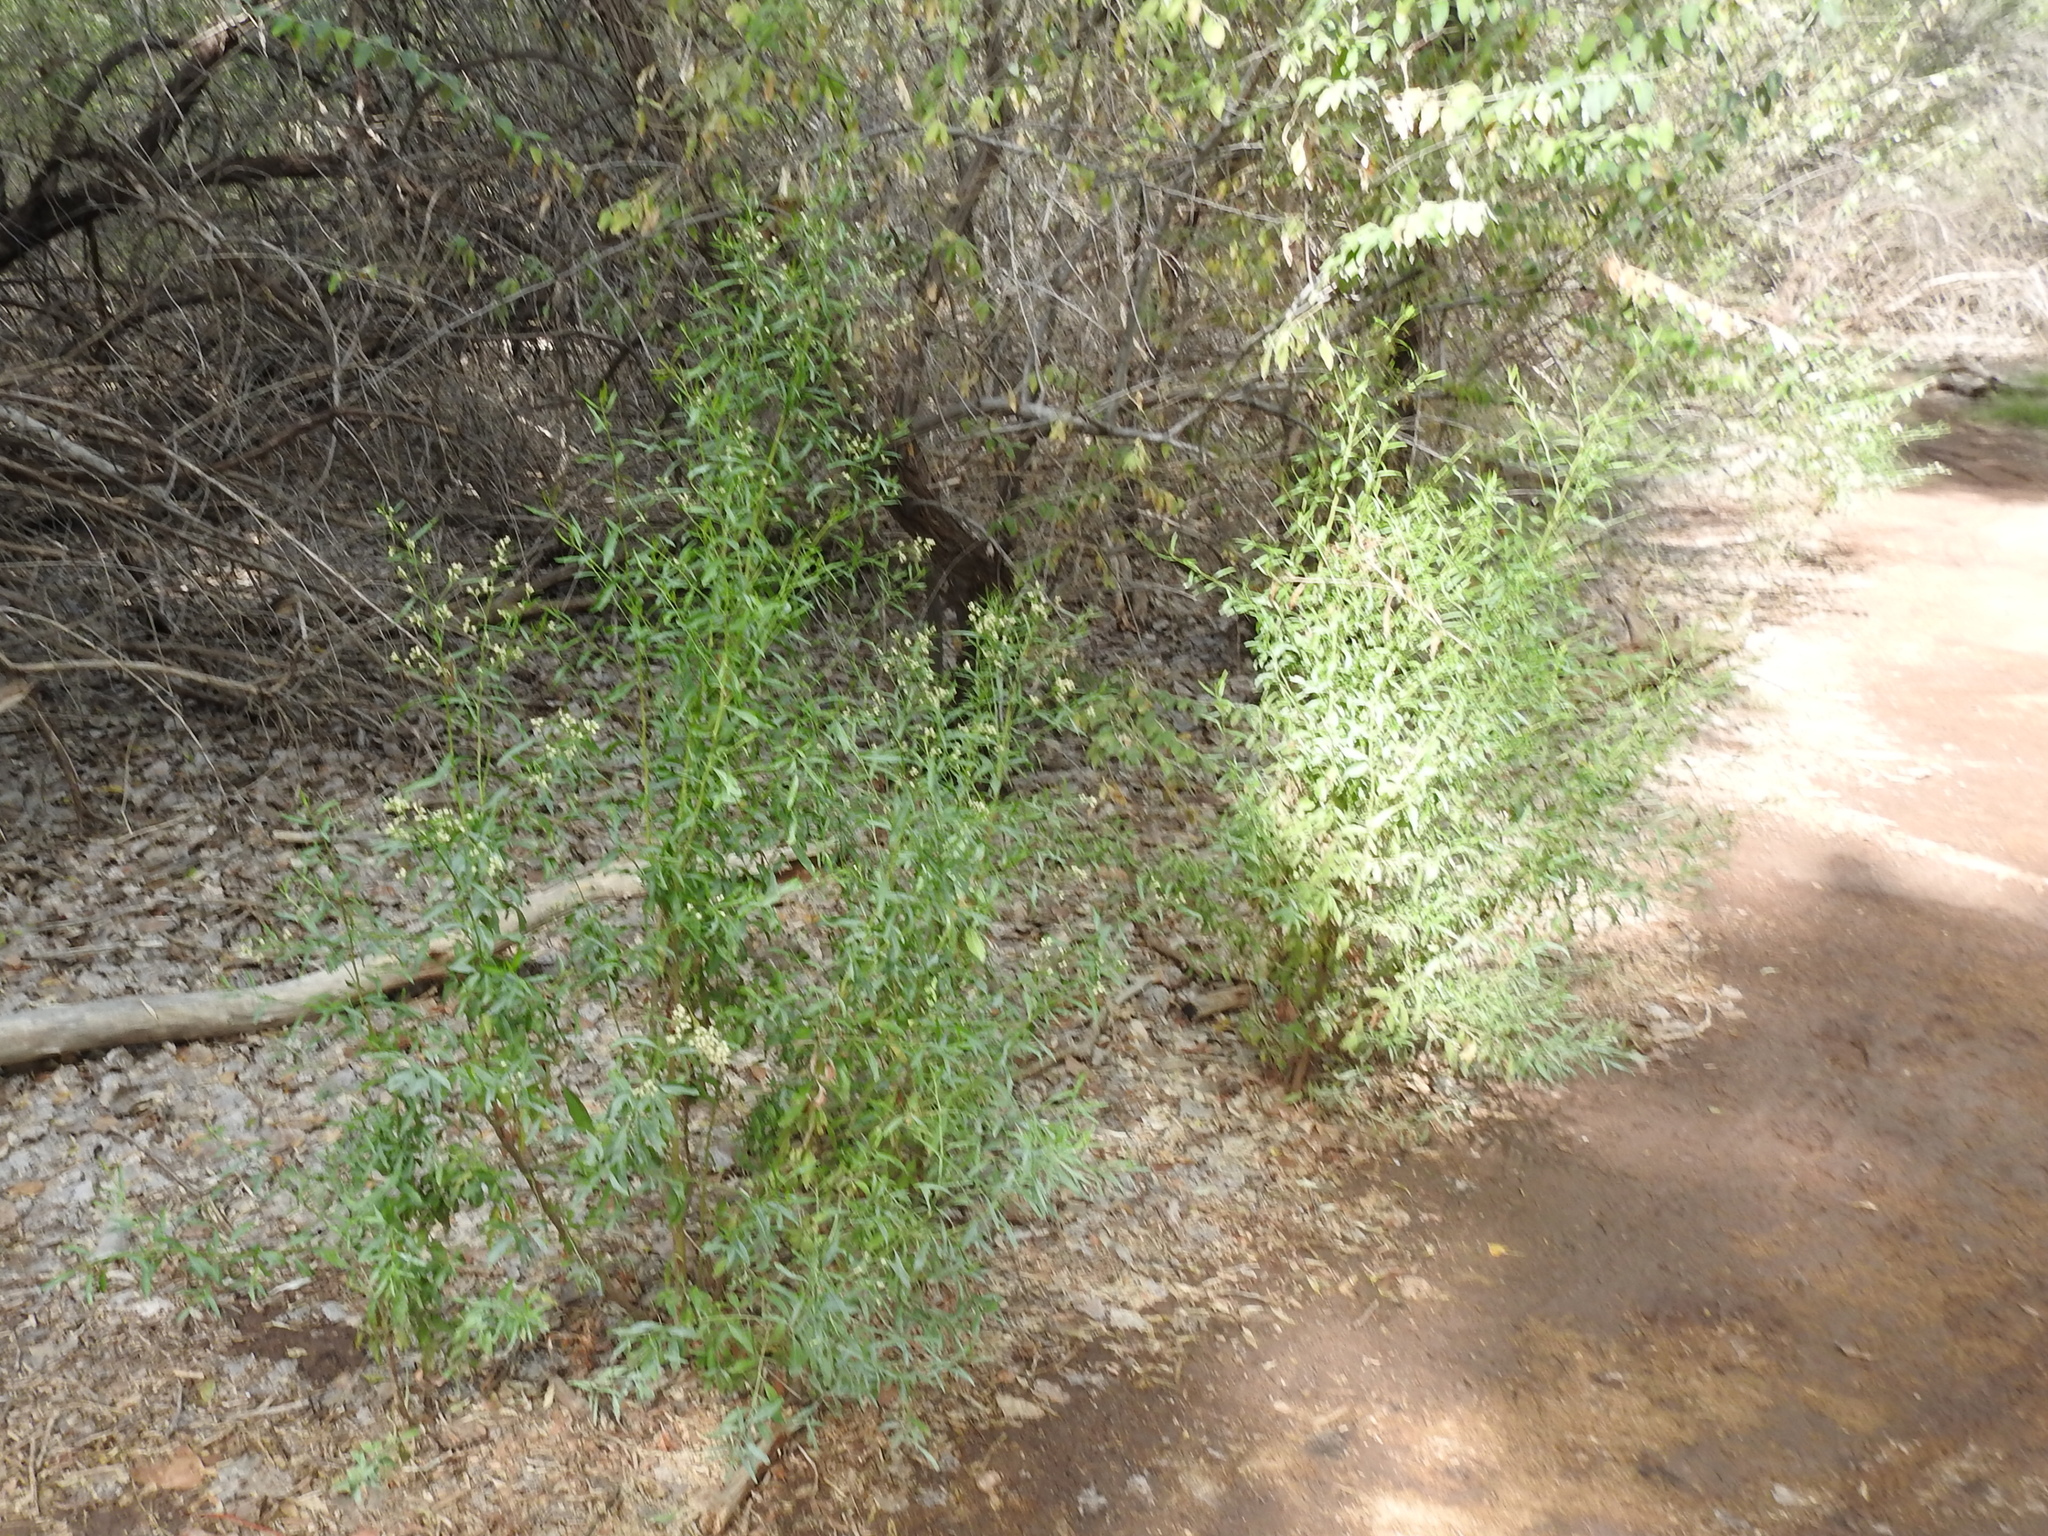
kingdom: Plantae
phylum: Tracheophyta
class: Magnoliopsida
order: Asterales
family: Asteraceae
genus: Baccharis
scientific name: Baccharis salicina
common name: Willow baccharis
